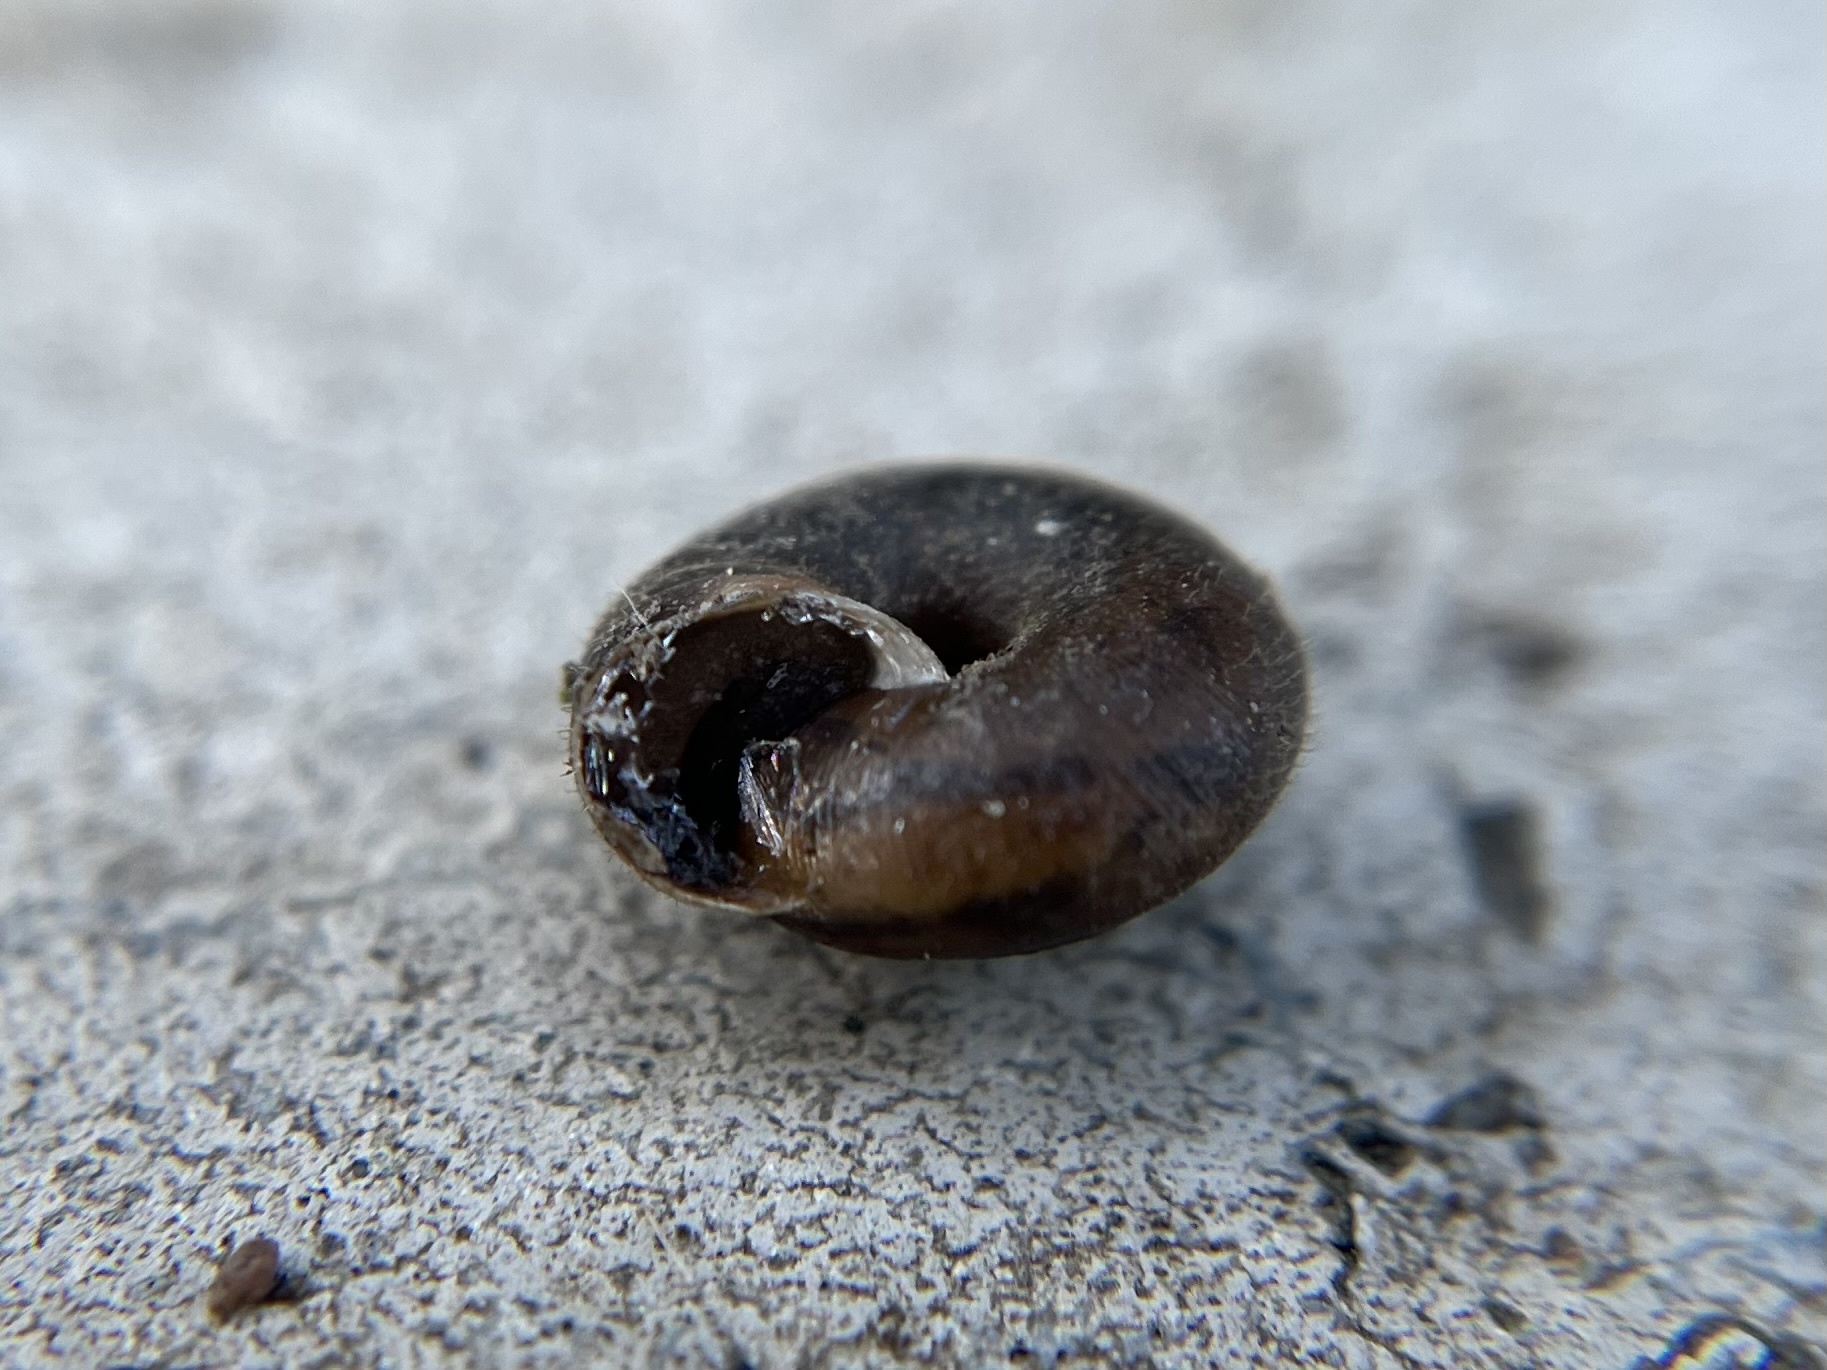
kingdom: Animalia
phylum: Mollusca
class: Gastropoda
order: Stylommatophora
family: Hygromiidae
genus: Trochulus
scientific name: Trochulus hispidus
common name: Hairy snail
